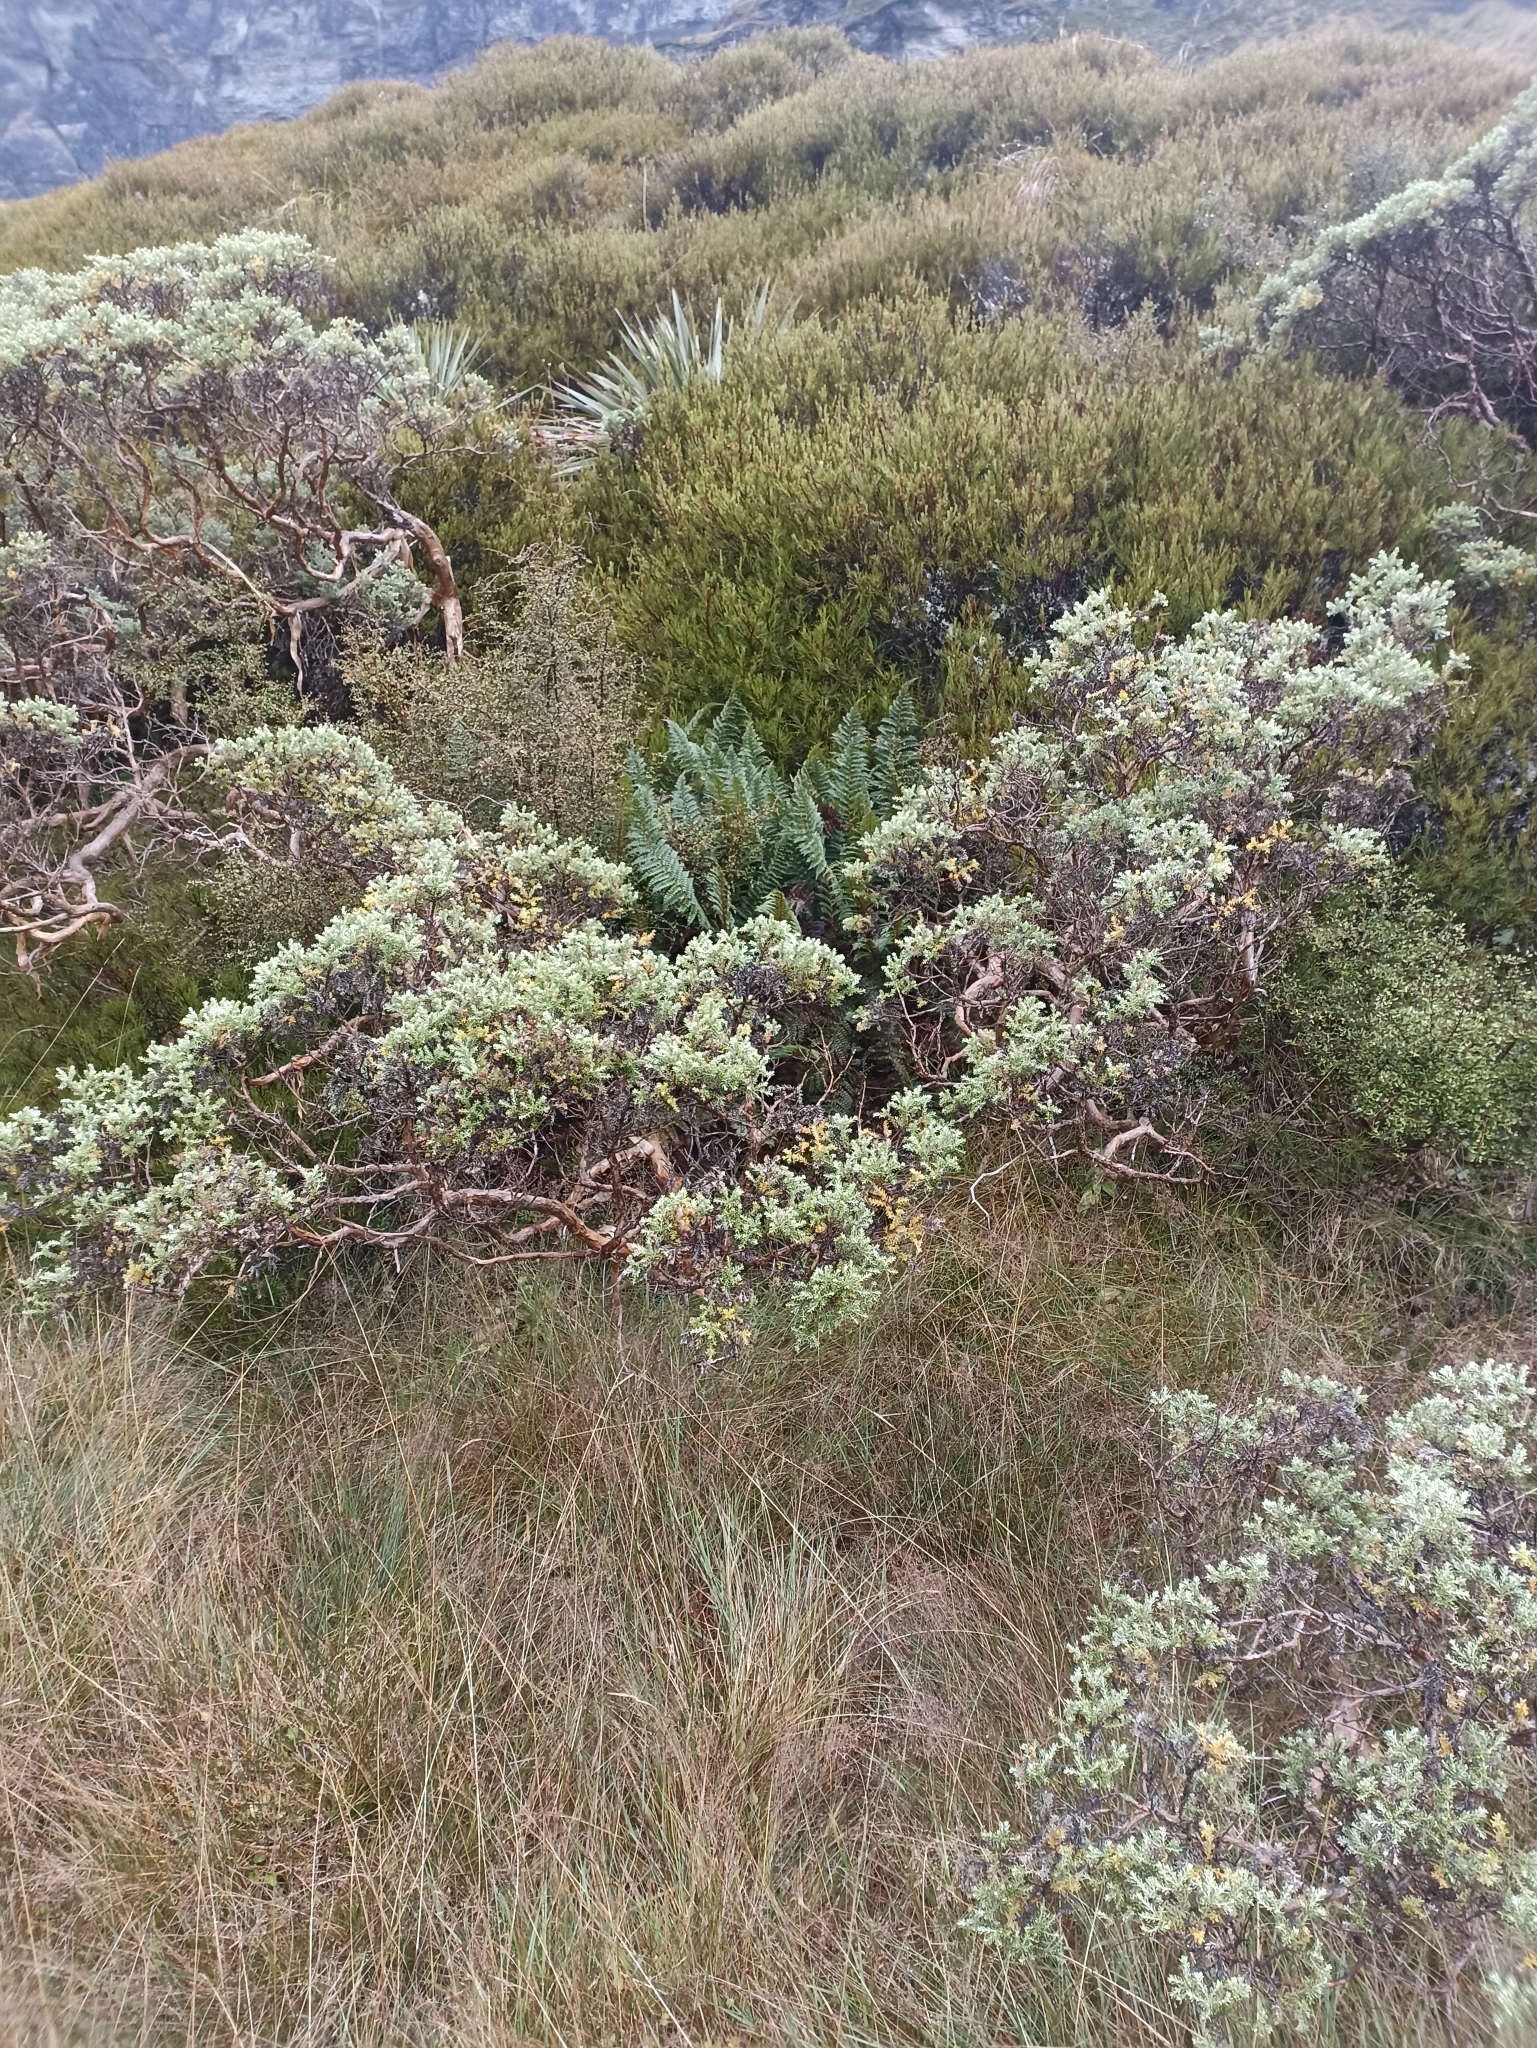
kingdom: Plantae
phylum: Tracheophyta
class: Magnoliopsida
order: Asterales
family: Asteraceae
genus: Brachyglottis
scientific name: Brachyglottis cassinioides
